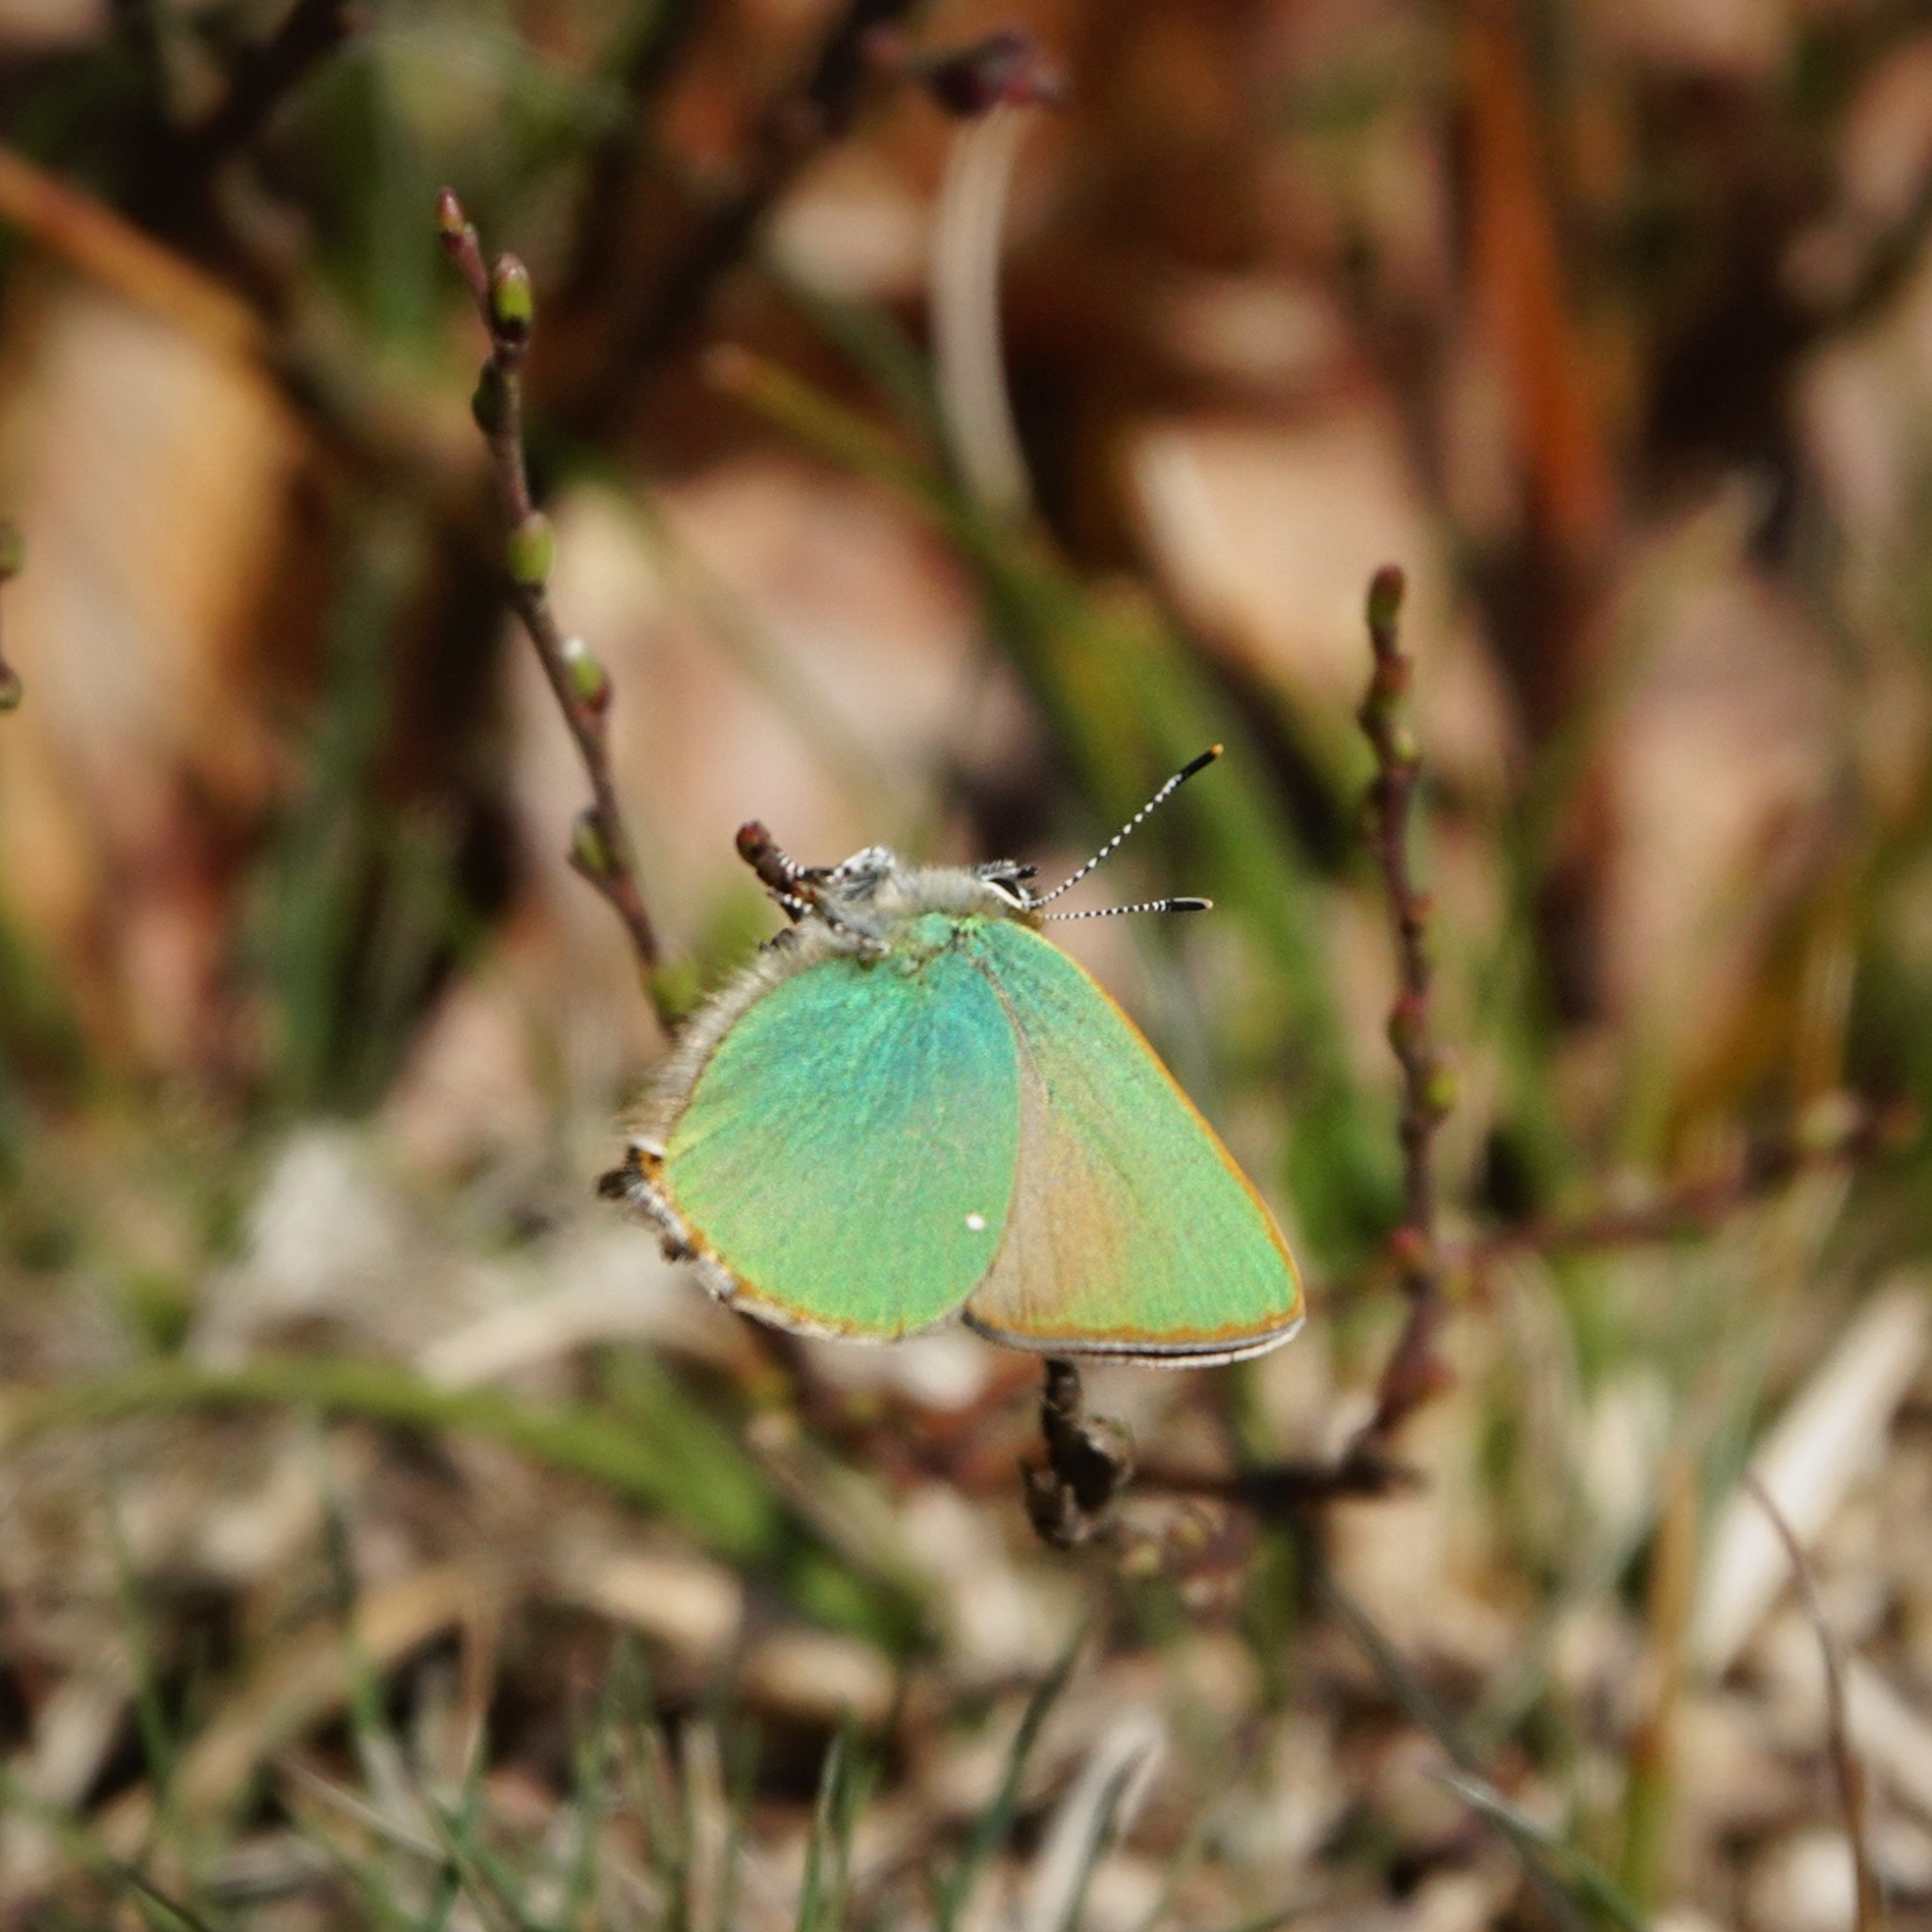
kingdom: Animalia
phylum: Arthropoda
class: Insecta
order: Lepidoptera
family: Lycaenidae
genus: Callophrys
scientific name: Callophrys rubi
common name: Green hairstreak
